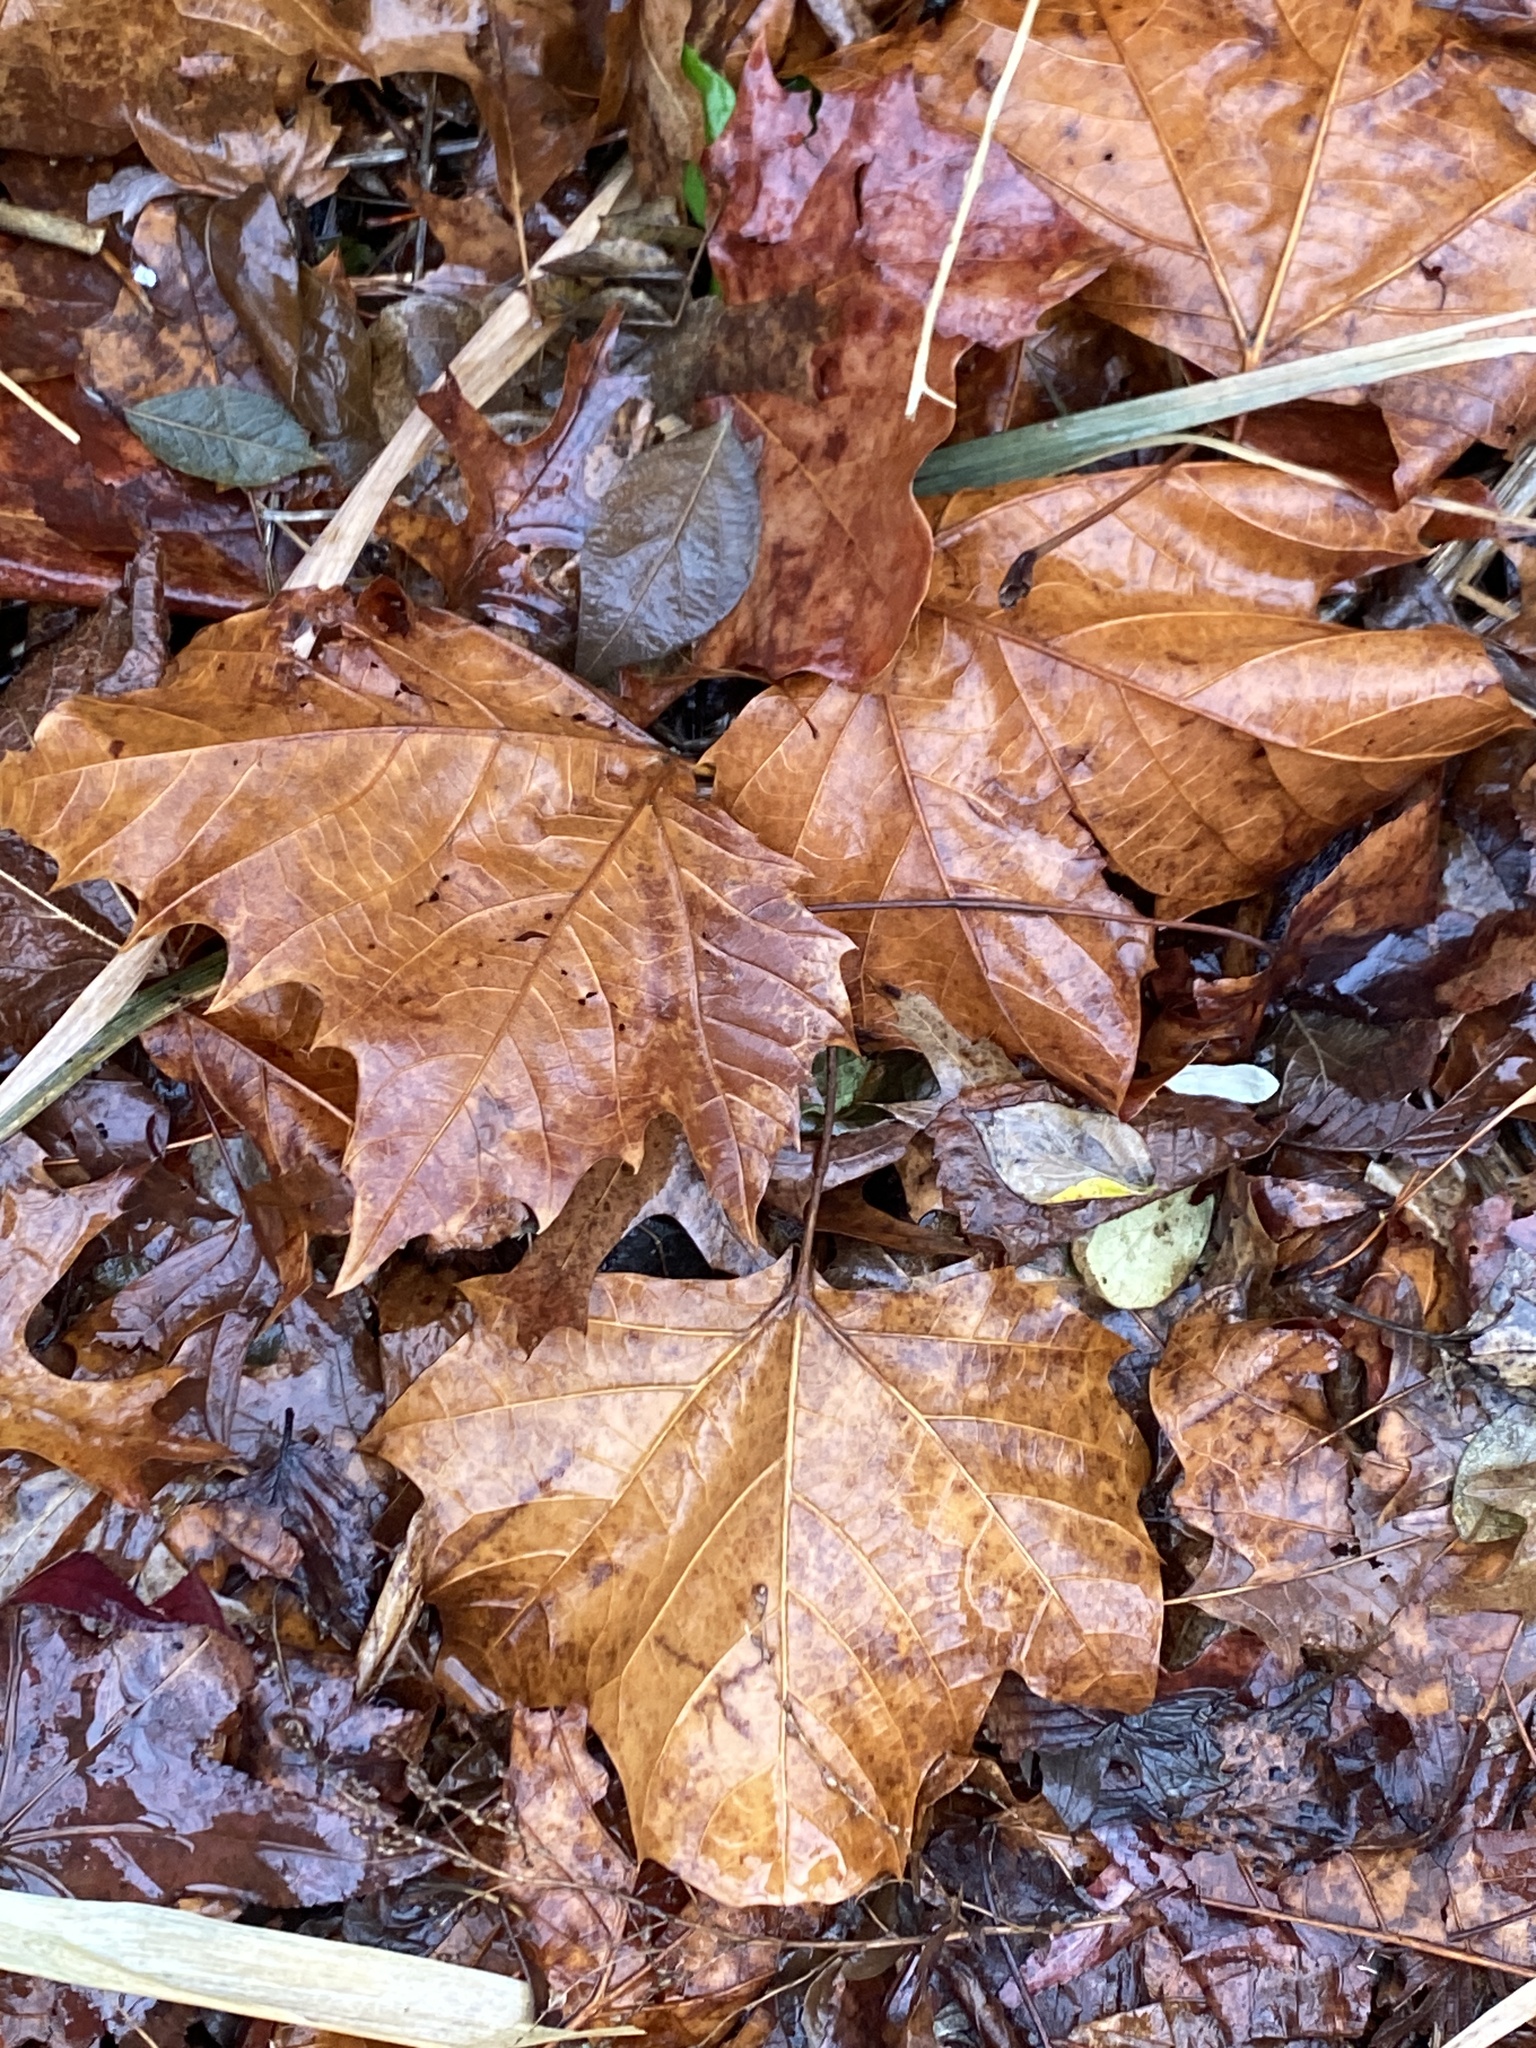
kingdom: Plantae
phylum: Tracheophyta
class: Magnoliopsida
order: Proteales
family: Platanaceae
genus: Platanus
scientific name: Platanus occidentalis
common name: American sycamore
